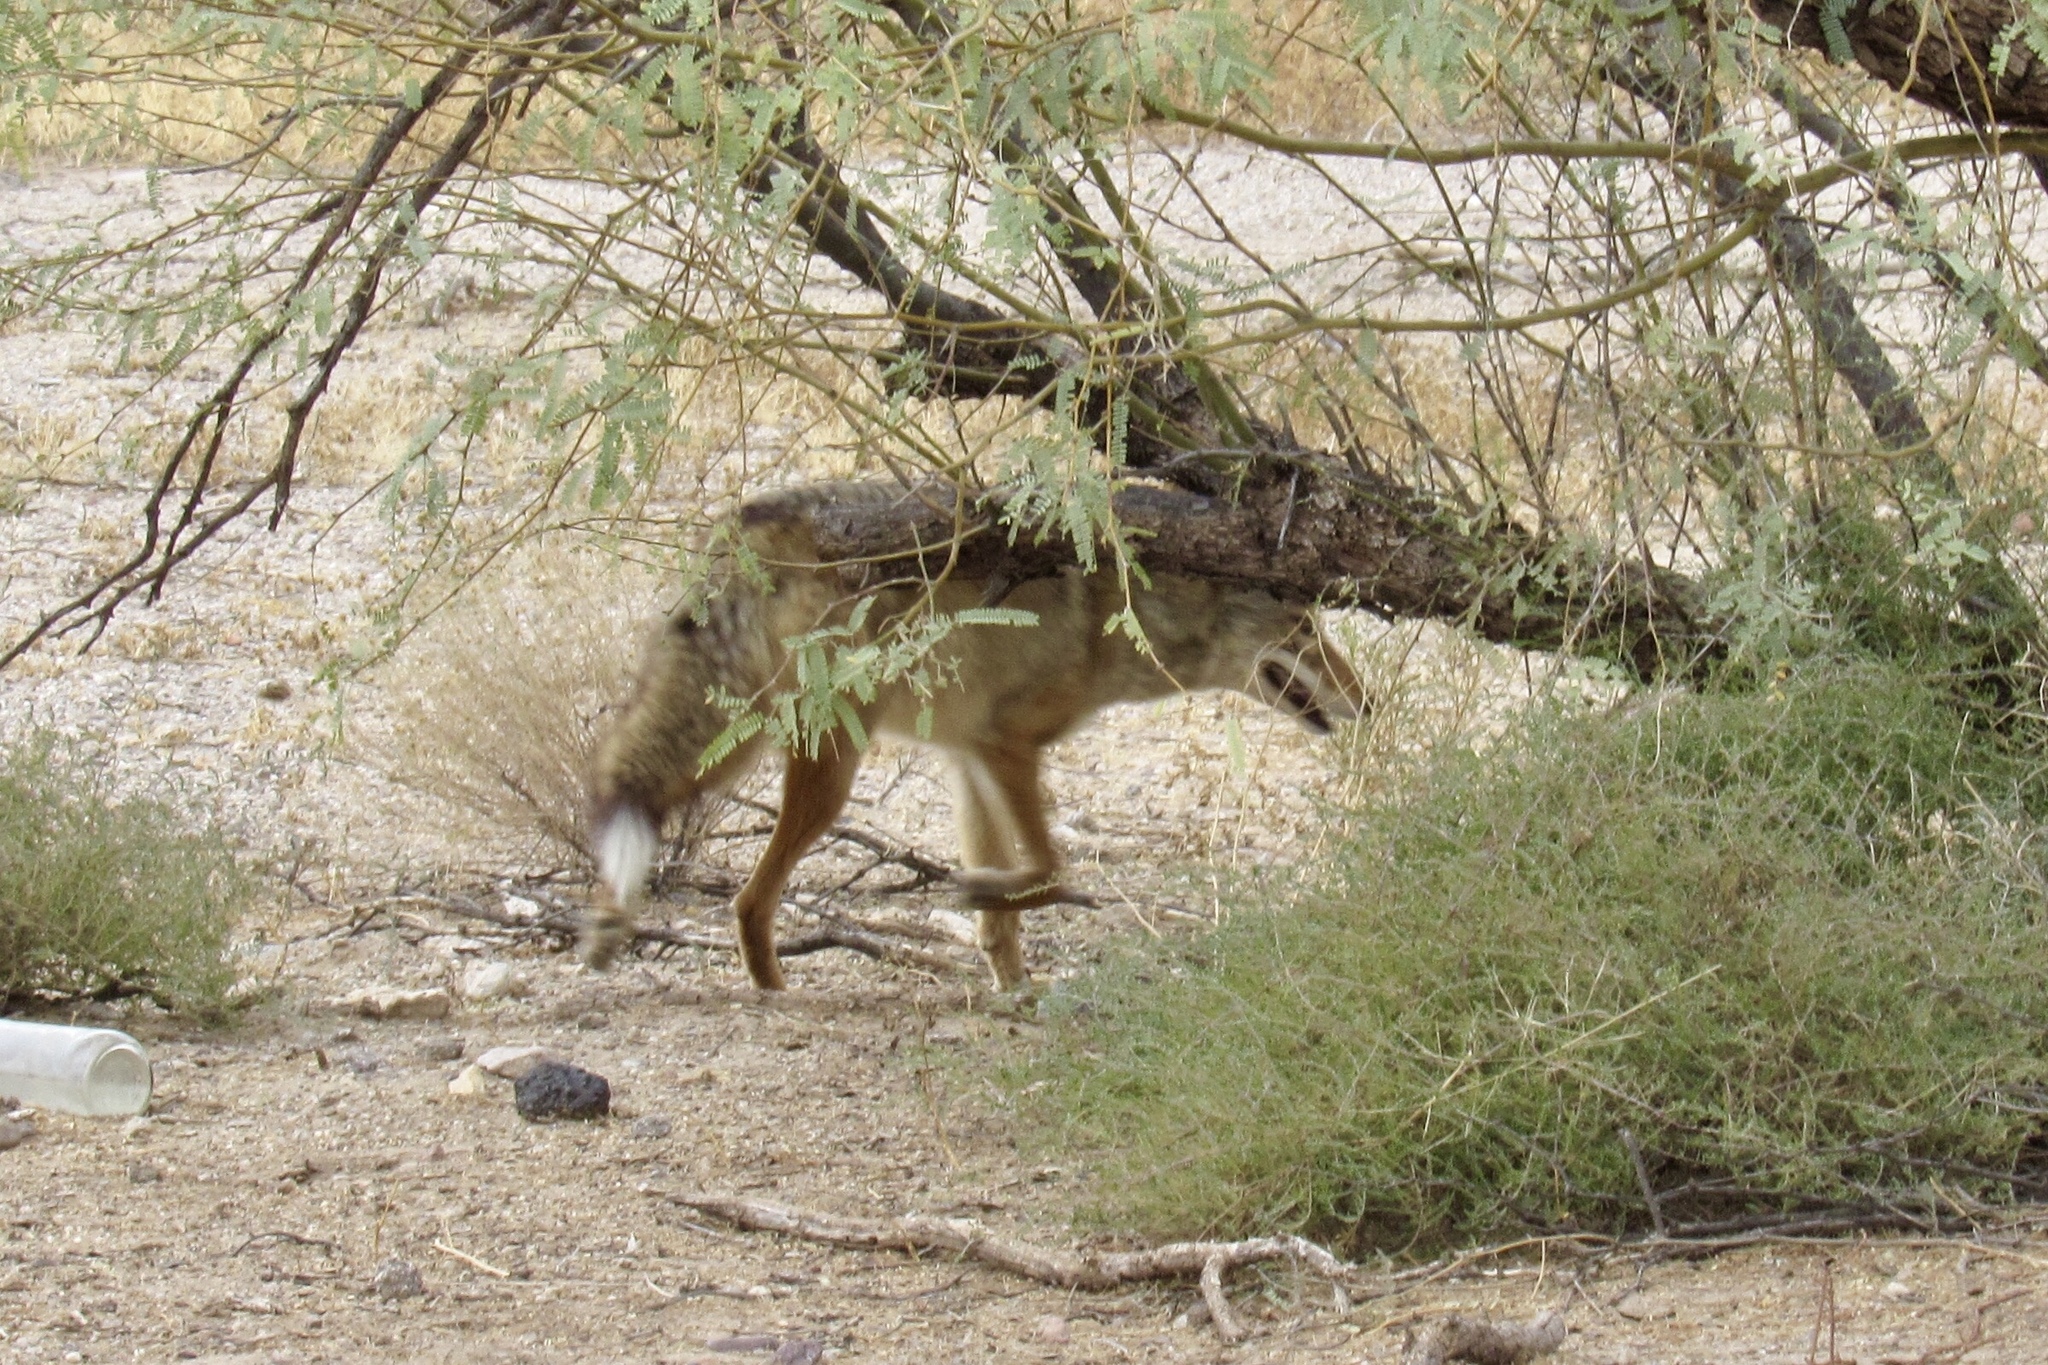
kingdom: Animalia
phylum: Chordata
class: Mammalia
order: Carnivora
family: Canidae
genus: Canis
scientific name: Canis latrans
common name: Coyote
